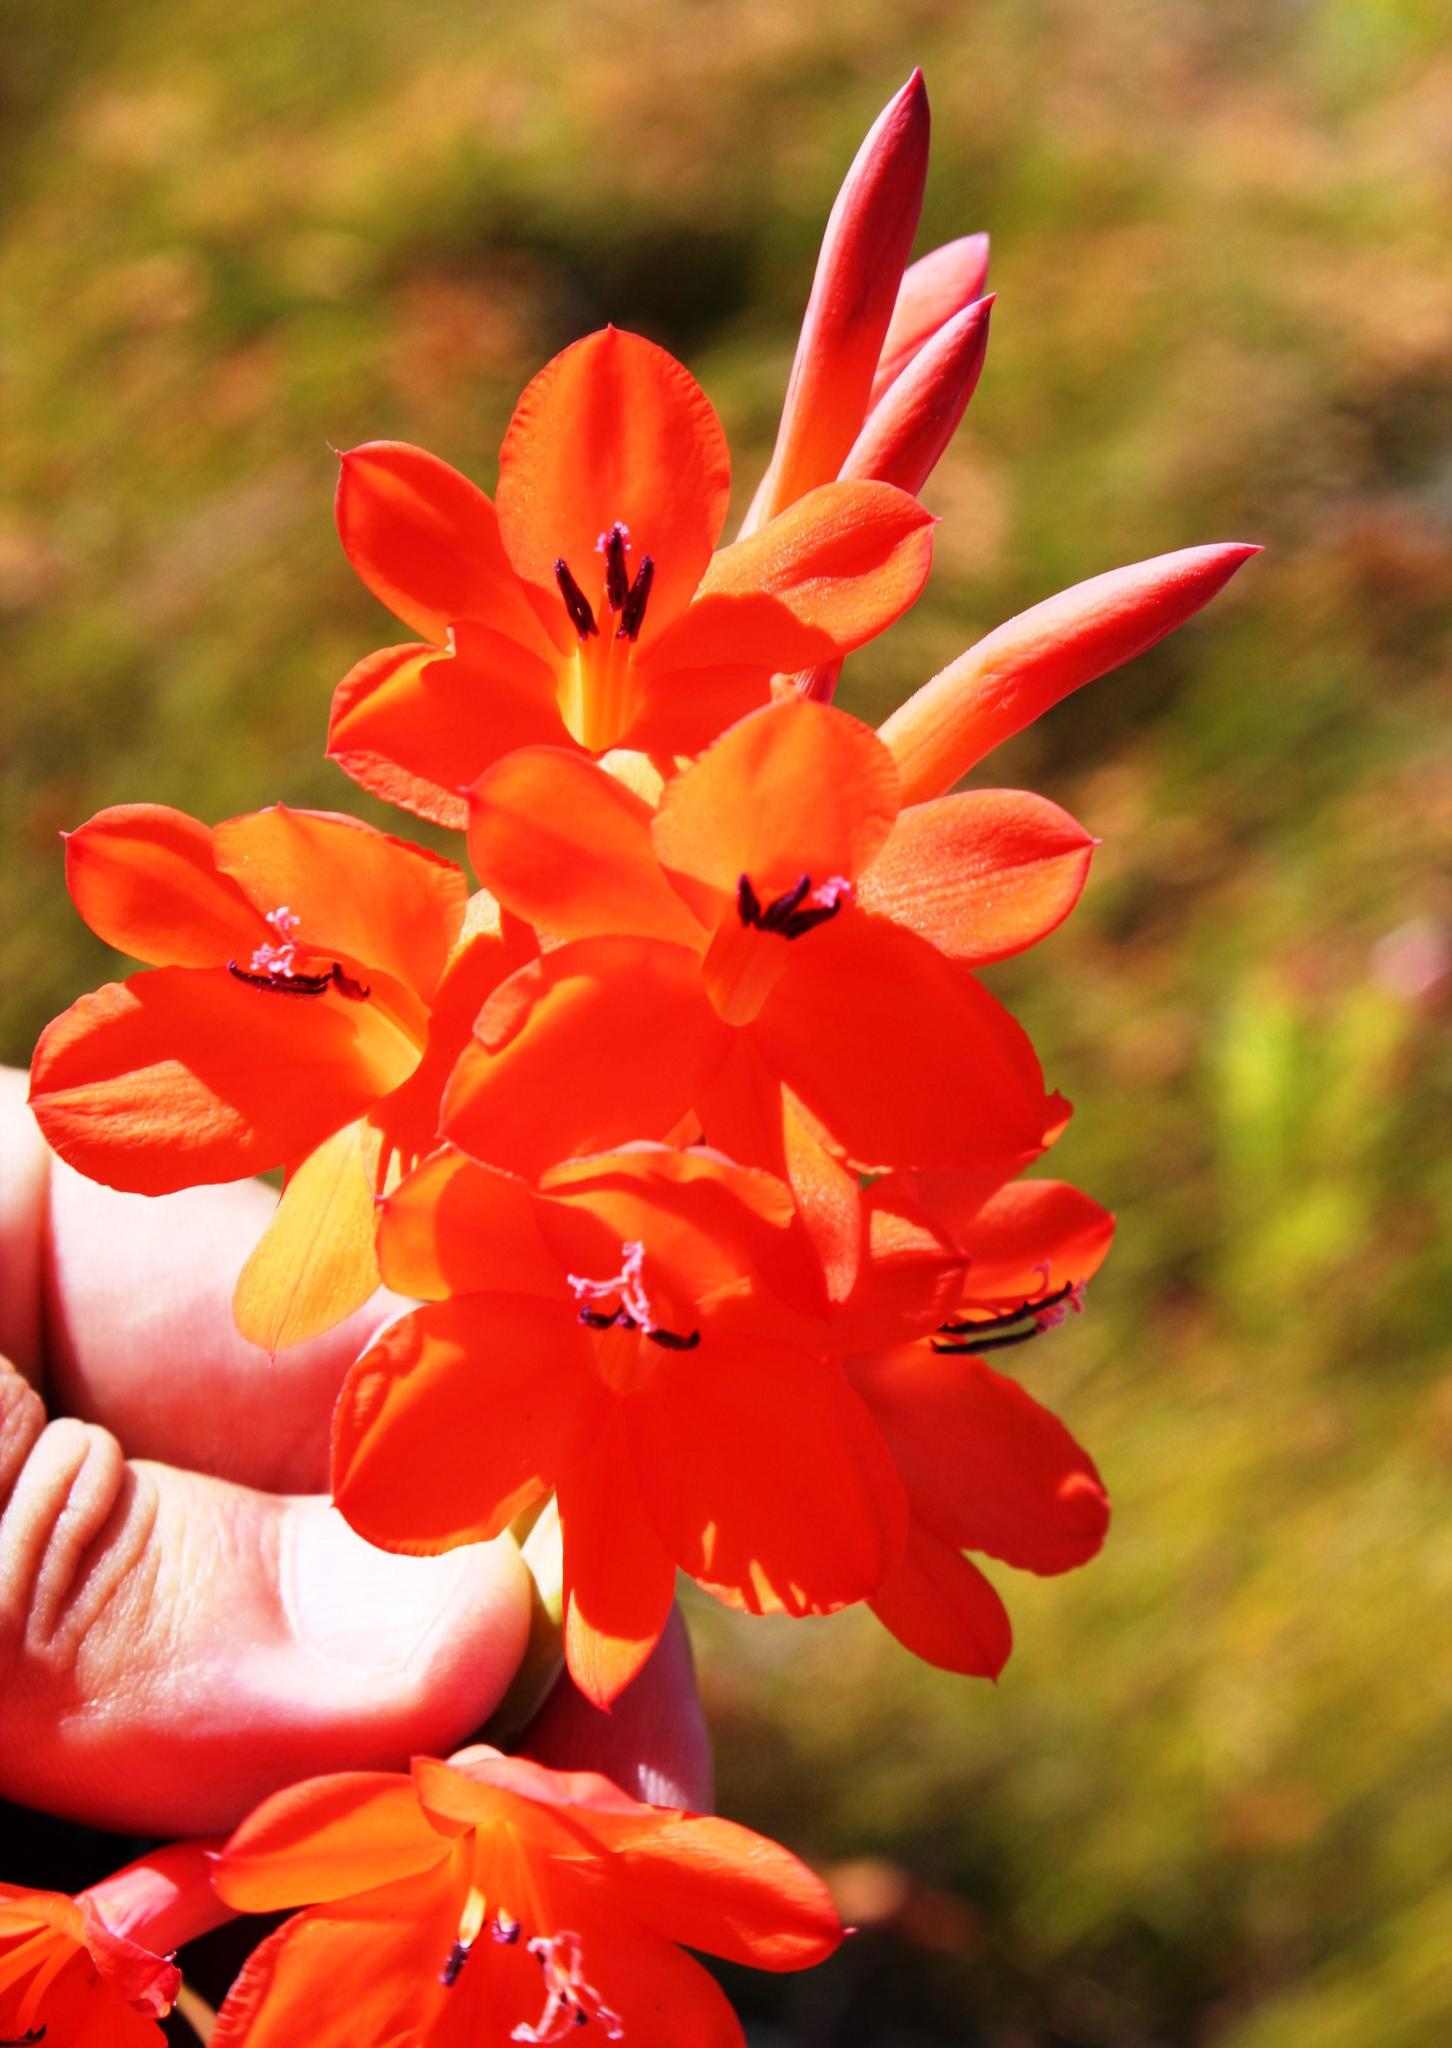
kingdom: Plantae
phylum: Tracheophyta
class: Liliopsida
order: Asparagales
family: Iridaceae
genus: Watsonia
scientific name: Watsonia schlechteri
